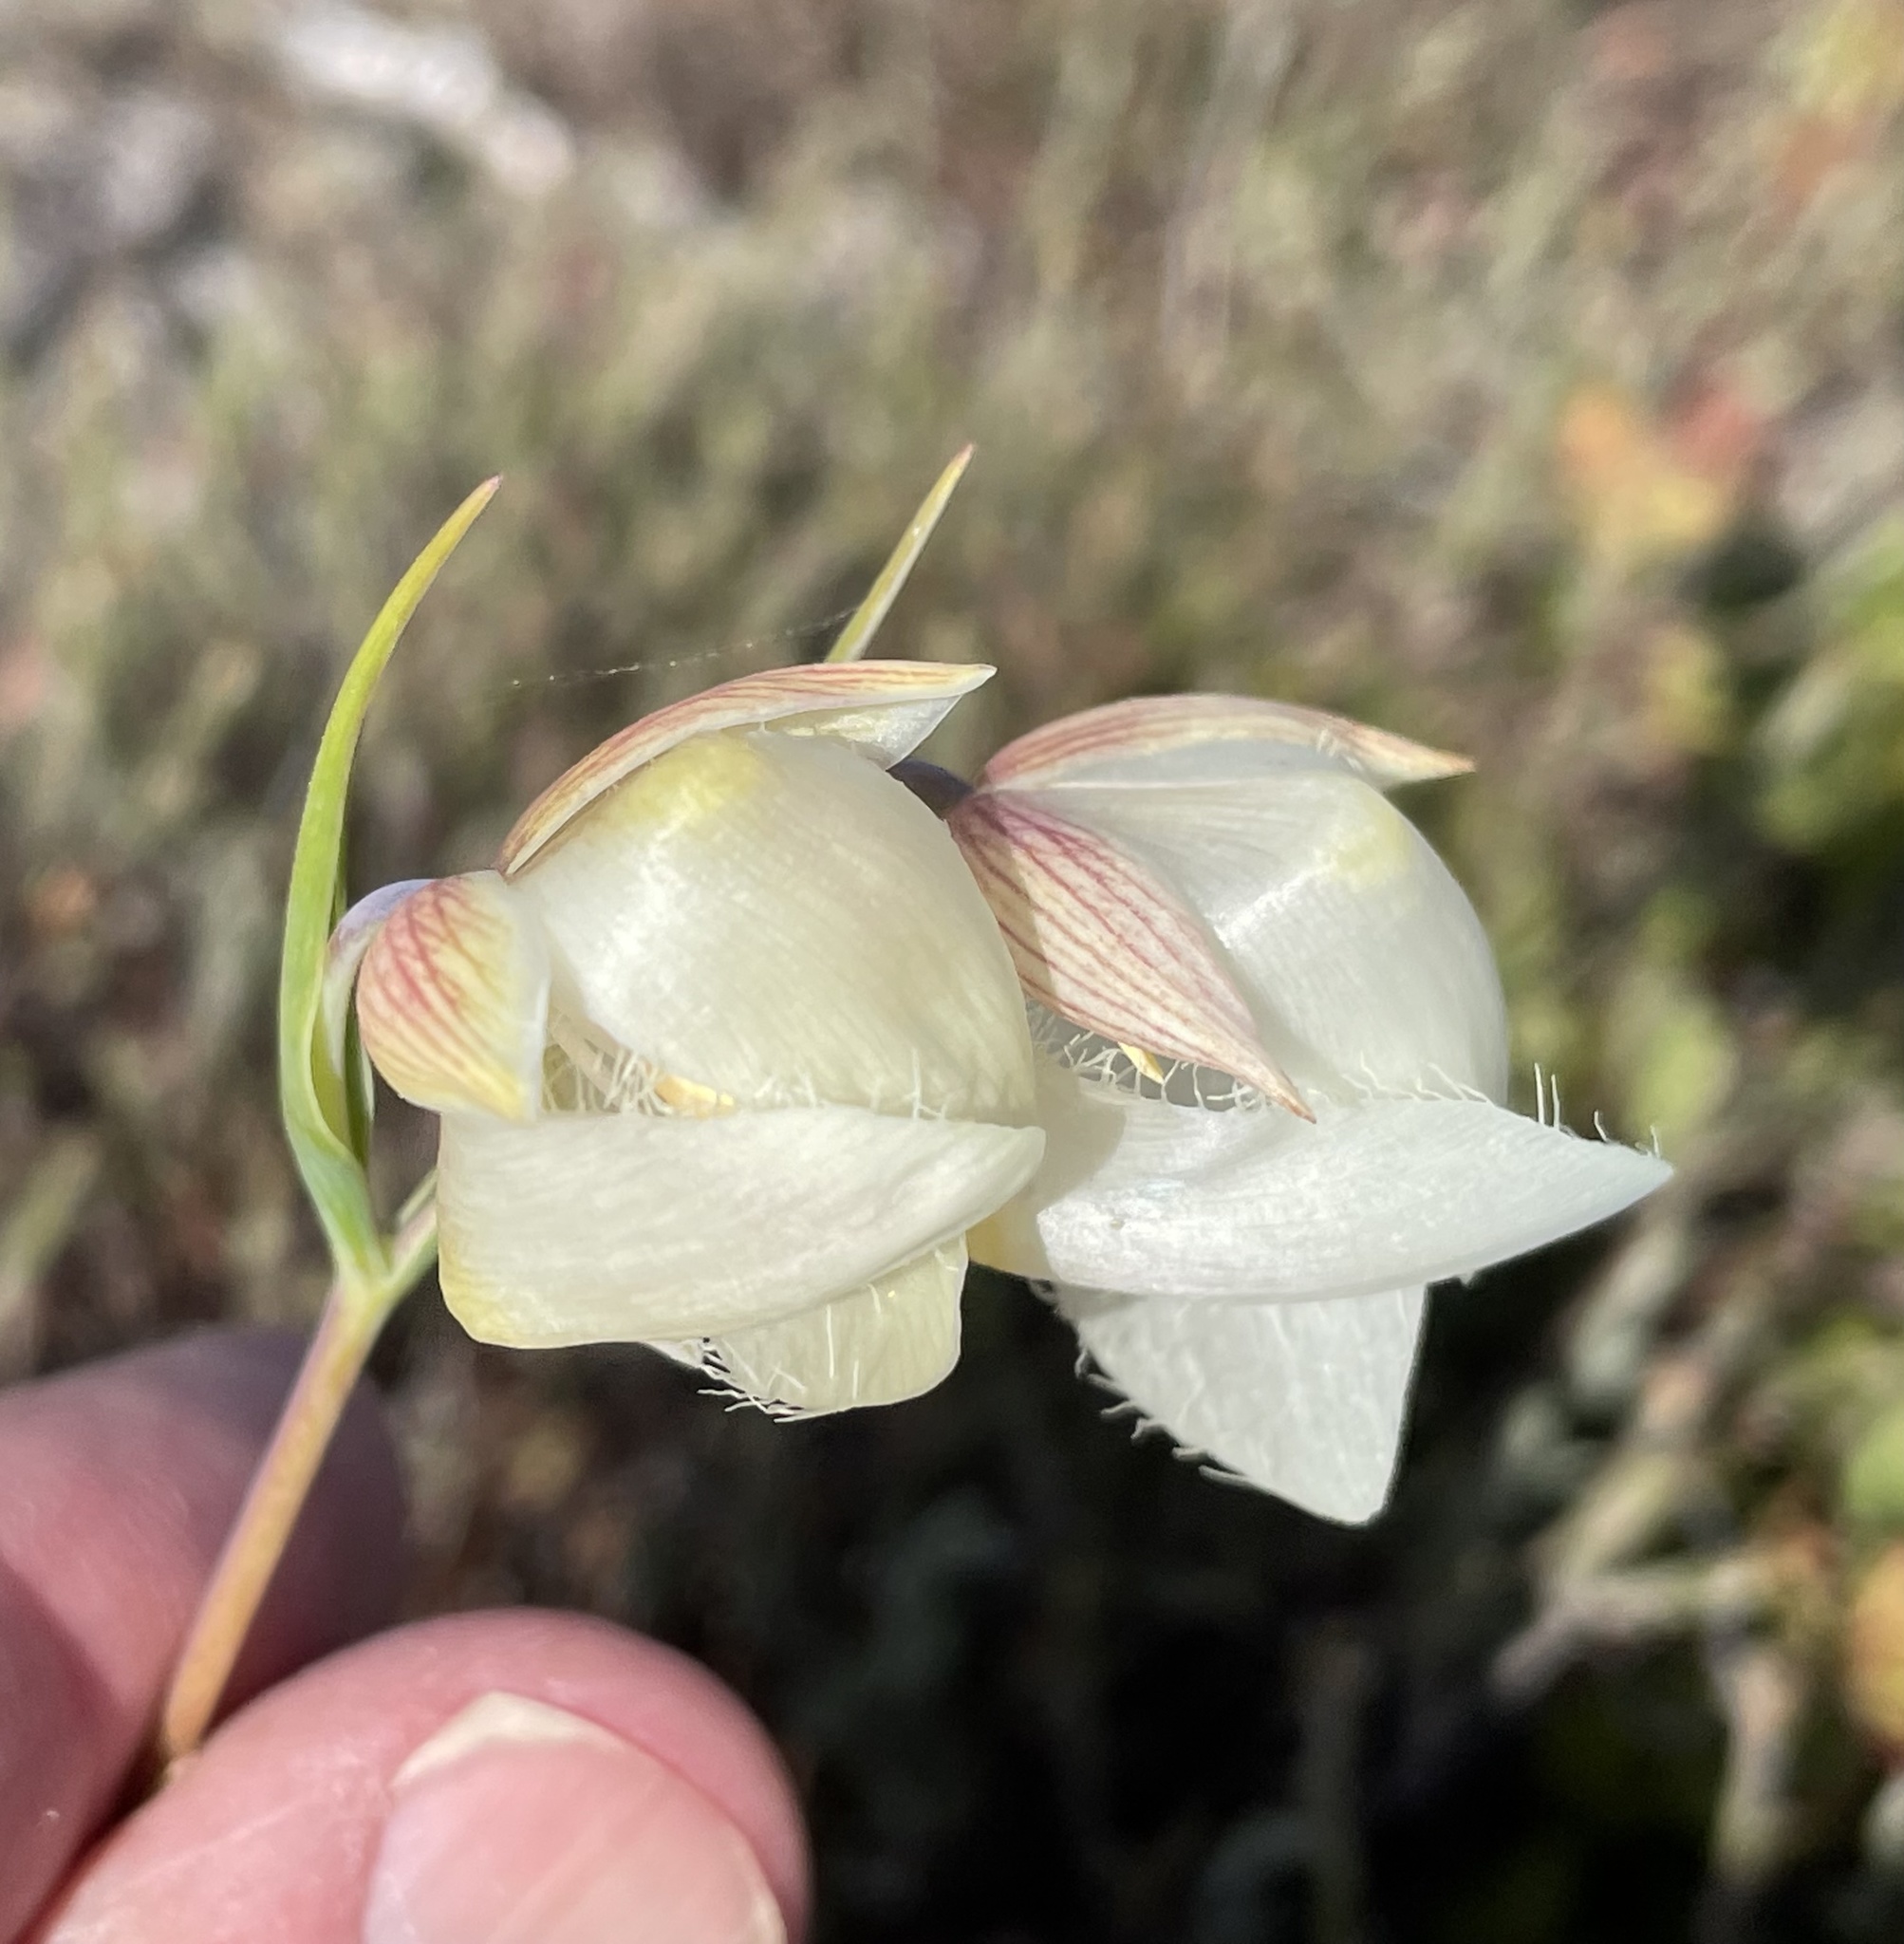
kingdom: Plantae
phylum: Tracheophyta
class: Liliopsida
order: Liliales
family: Liliaceae
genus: Calochortus
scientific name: Calochortus albus
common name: Fairy-lantern
